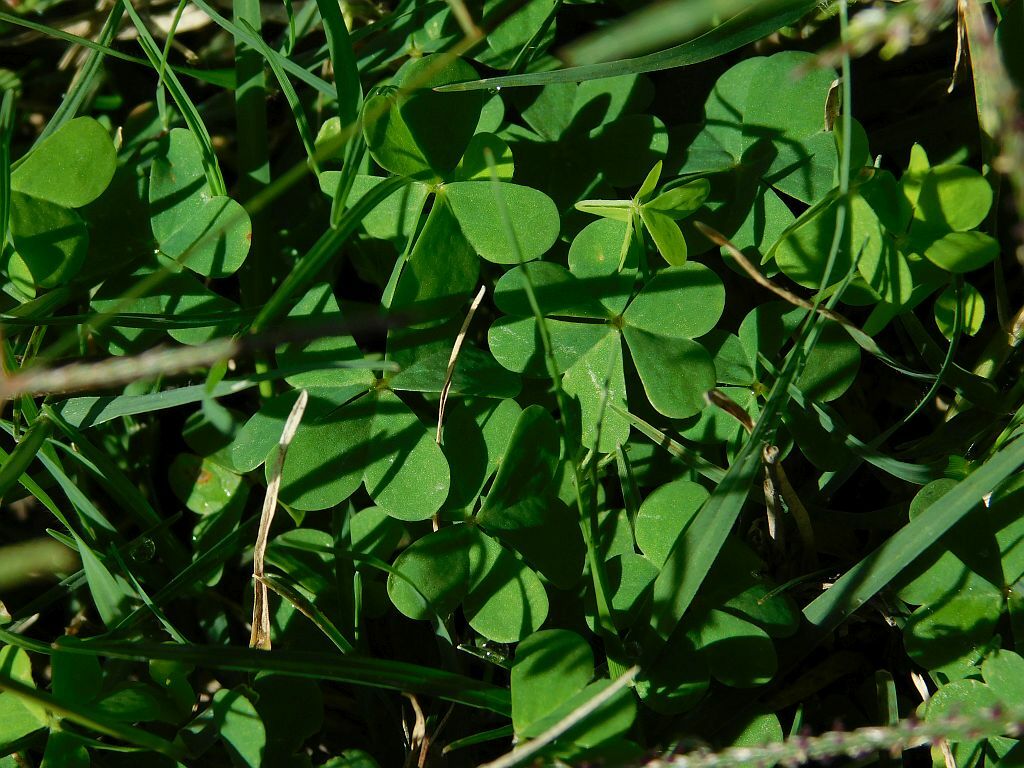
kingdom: Plantae
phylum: Tracheophyta
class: Magnoliopsida
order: Oxalidales
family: Oxalidaceae
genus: Oxalis
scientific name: Oxalis caprina
